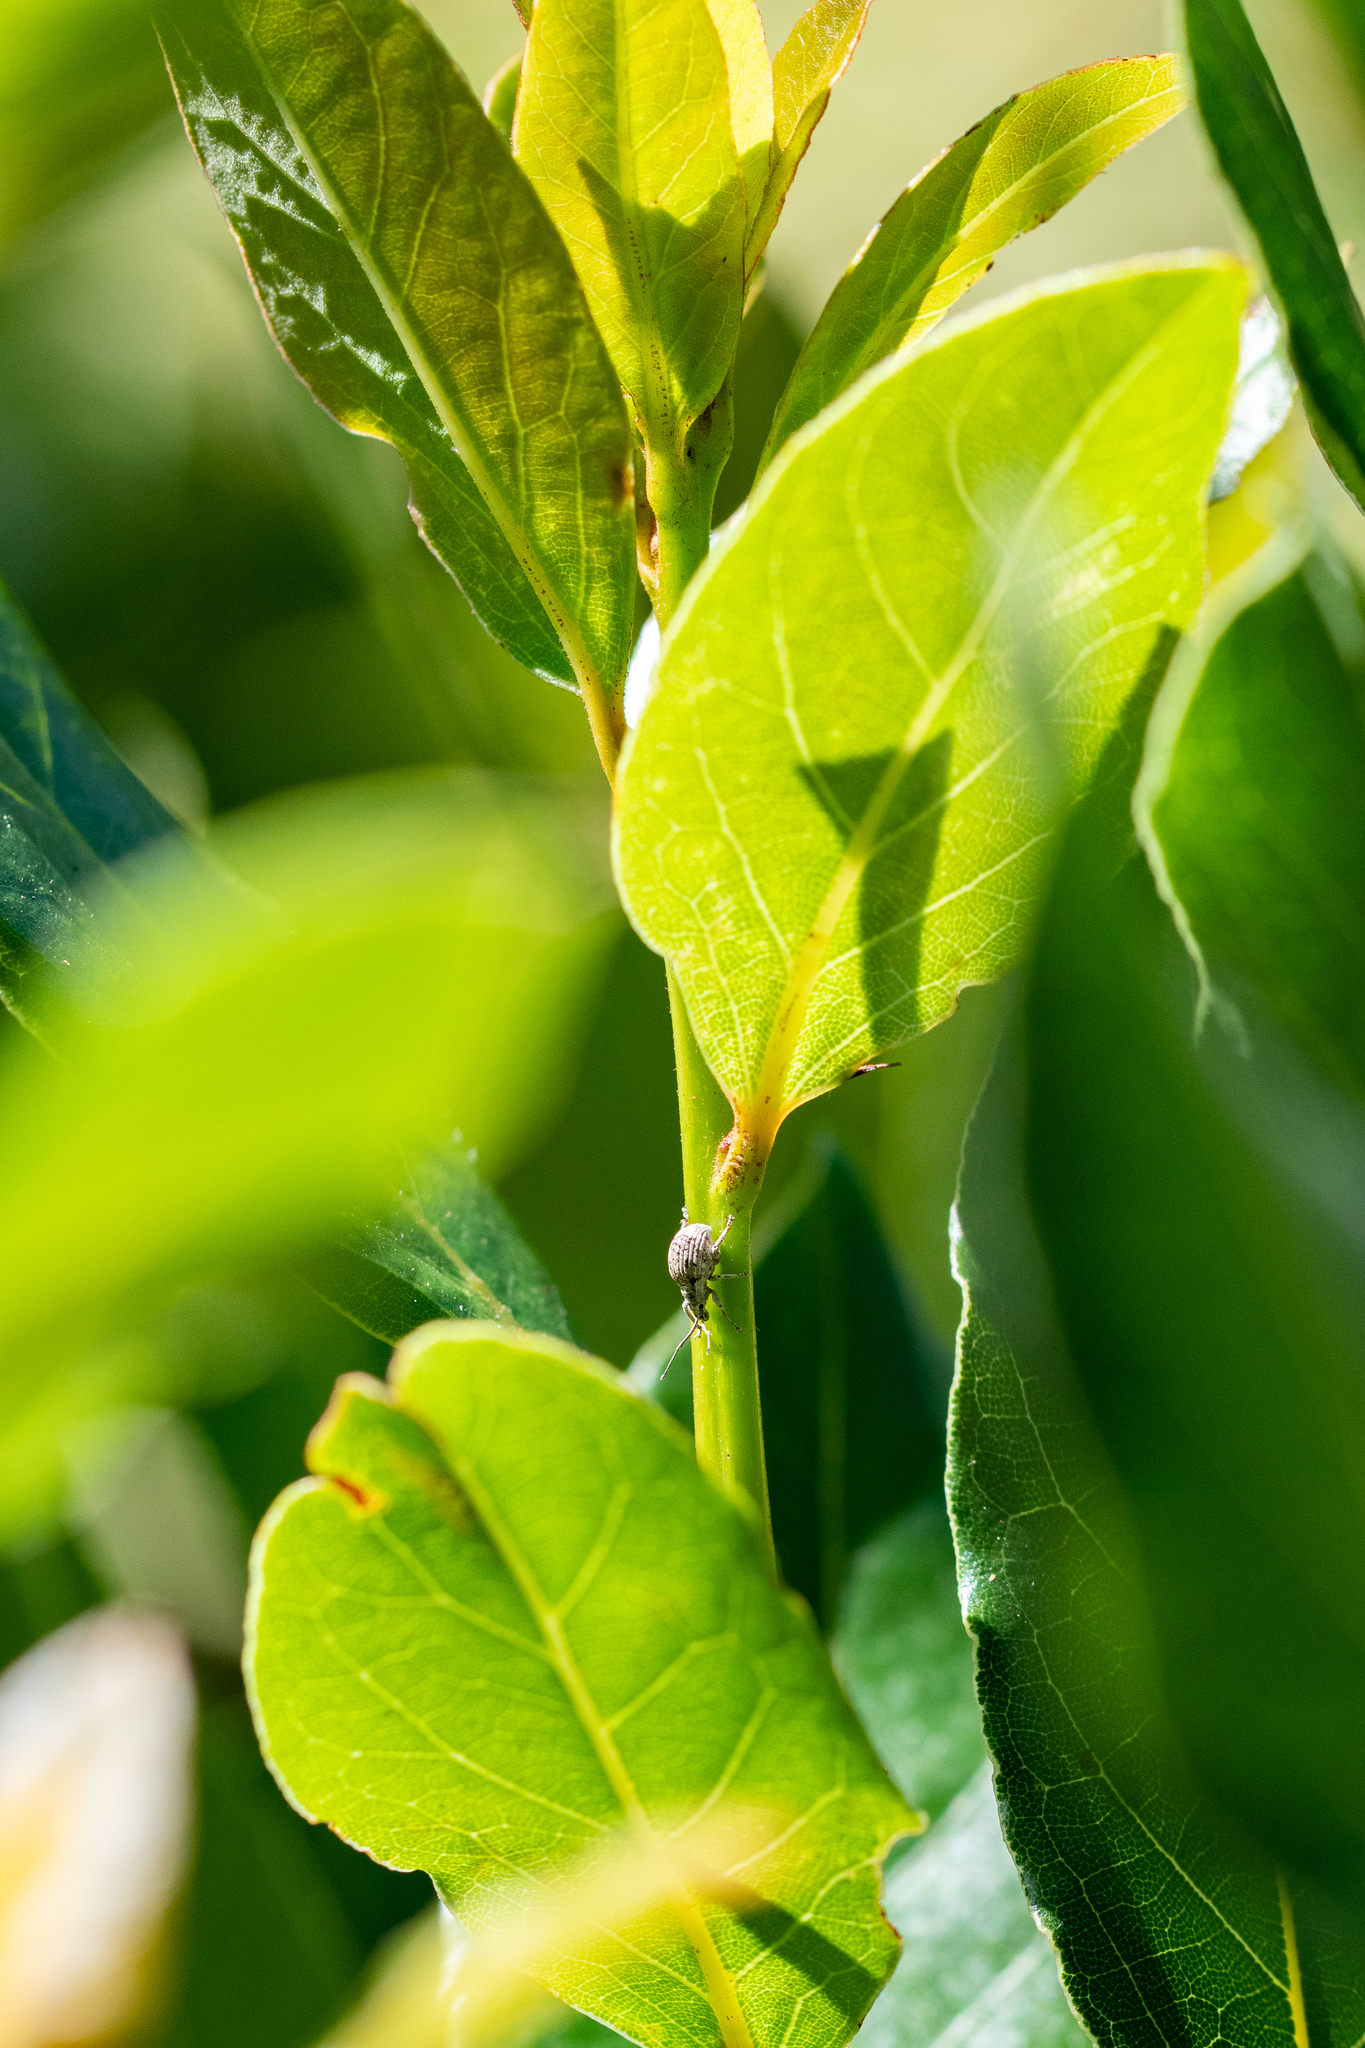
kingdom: Animalia
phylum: Arthropoda
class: Insecta
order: Coleoptera
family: Curculionidae
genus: Ellimenistes
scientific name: Ellimenistes laesicollis
